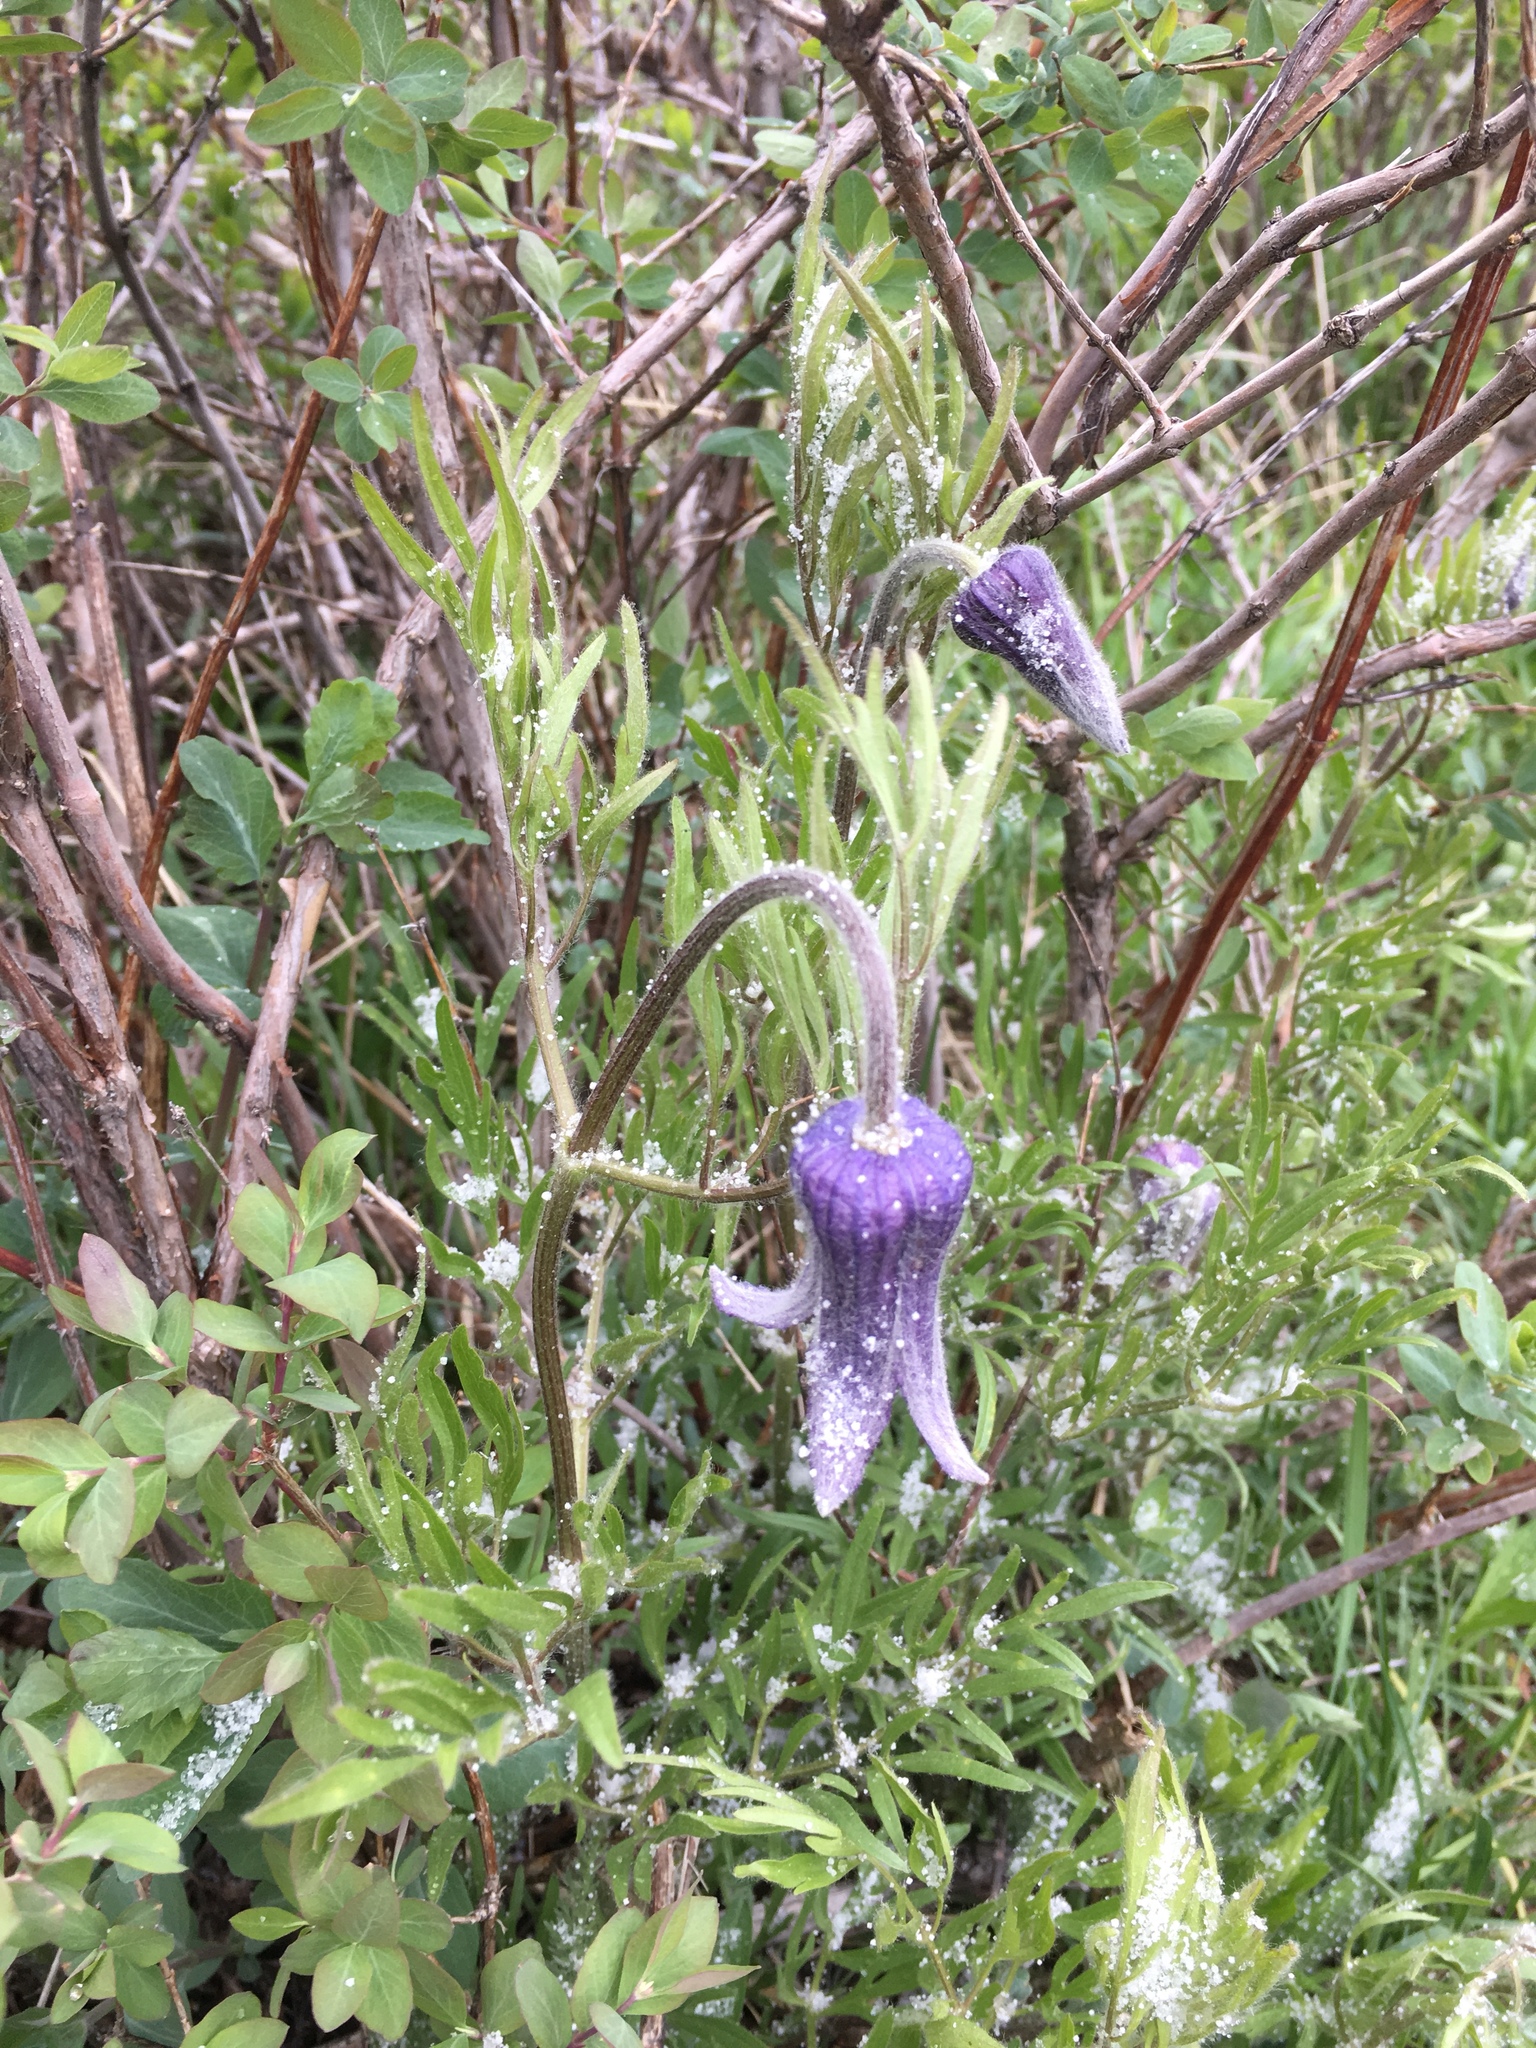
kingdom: Plantae
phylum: Tracheophyta
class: Magnoliopsida
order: Ranunculales
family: Ranunculaceae
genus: Clematis
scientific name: Clematis hirsutissima
